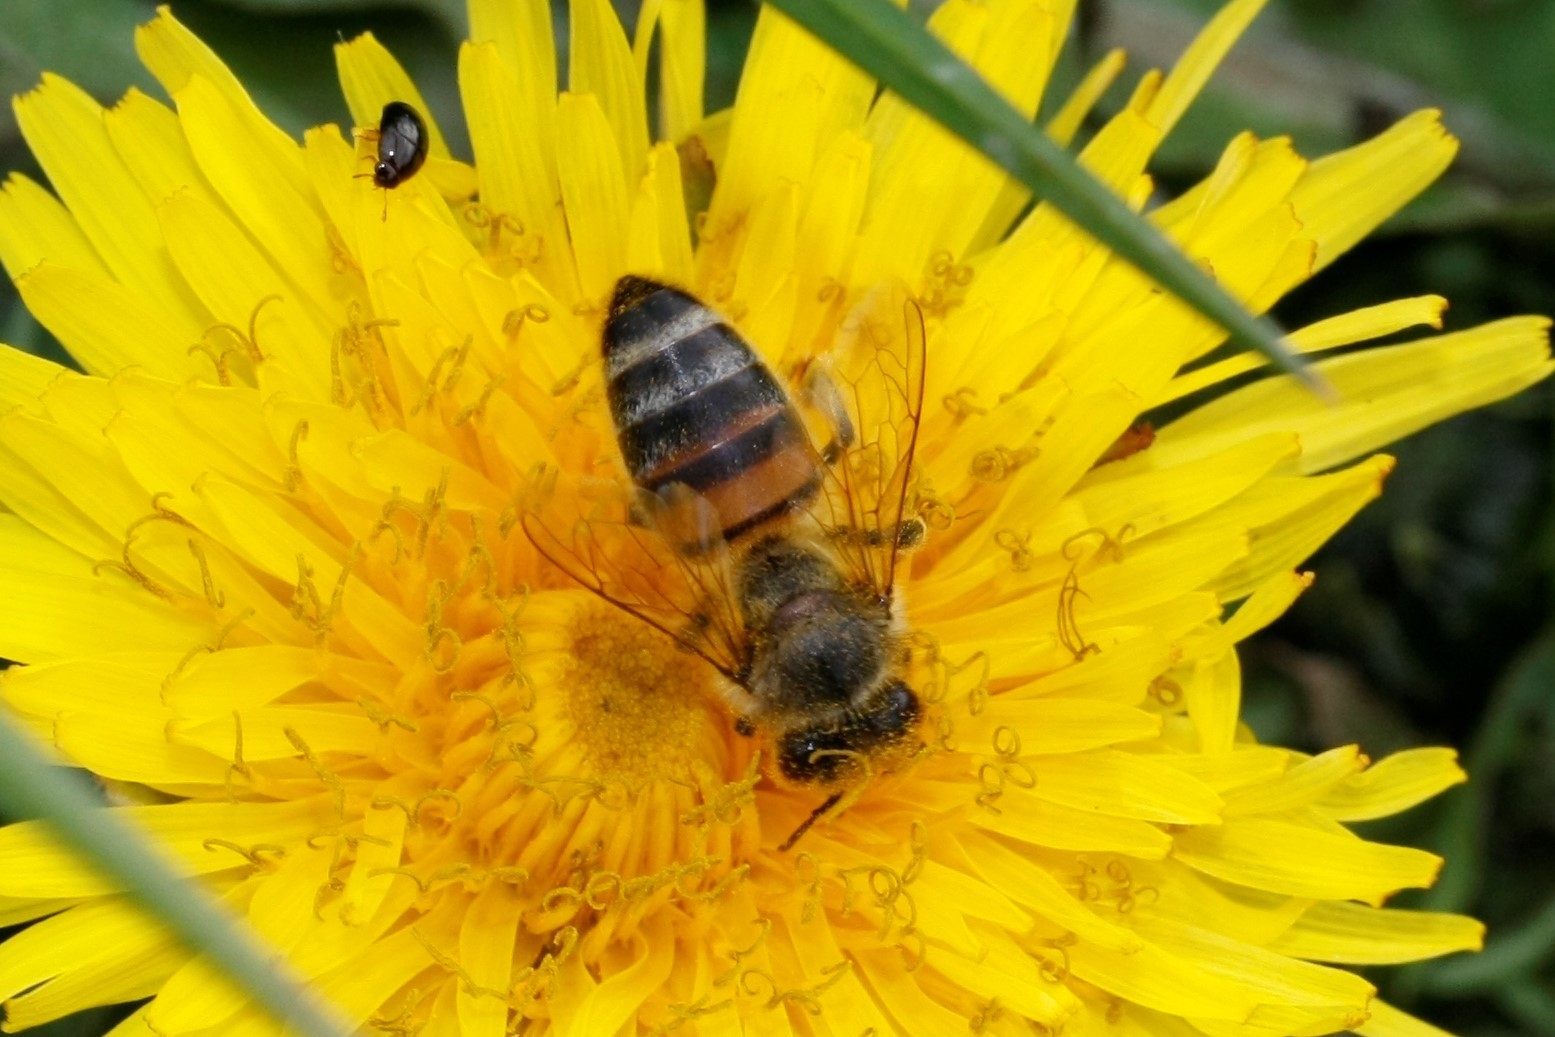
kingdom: Animalia
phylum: Arthropoda
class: Insecta
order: Hymenoptera
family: Apidae
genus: Apis
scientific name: Apis mellifera
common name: Honey bee
